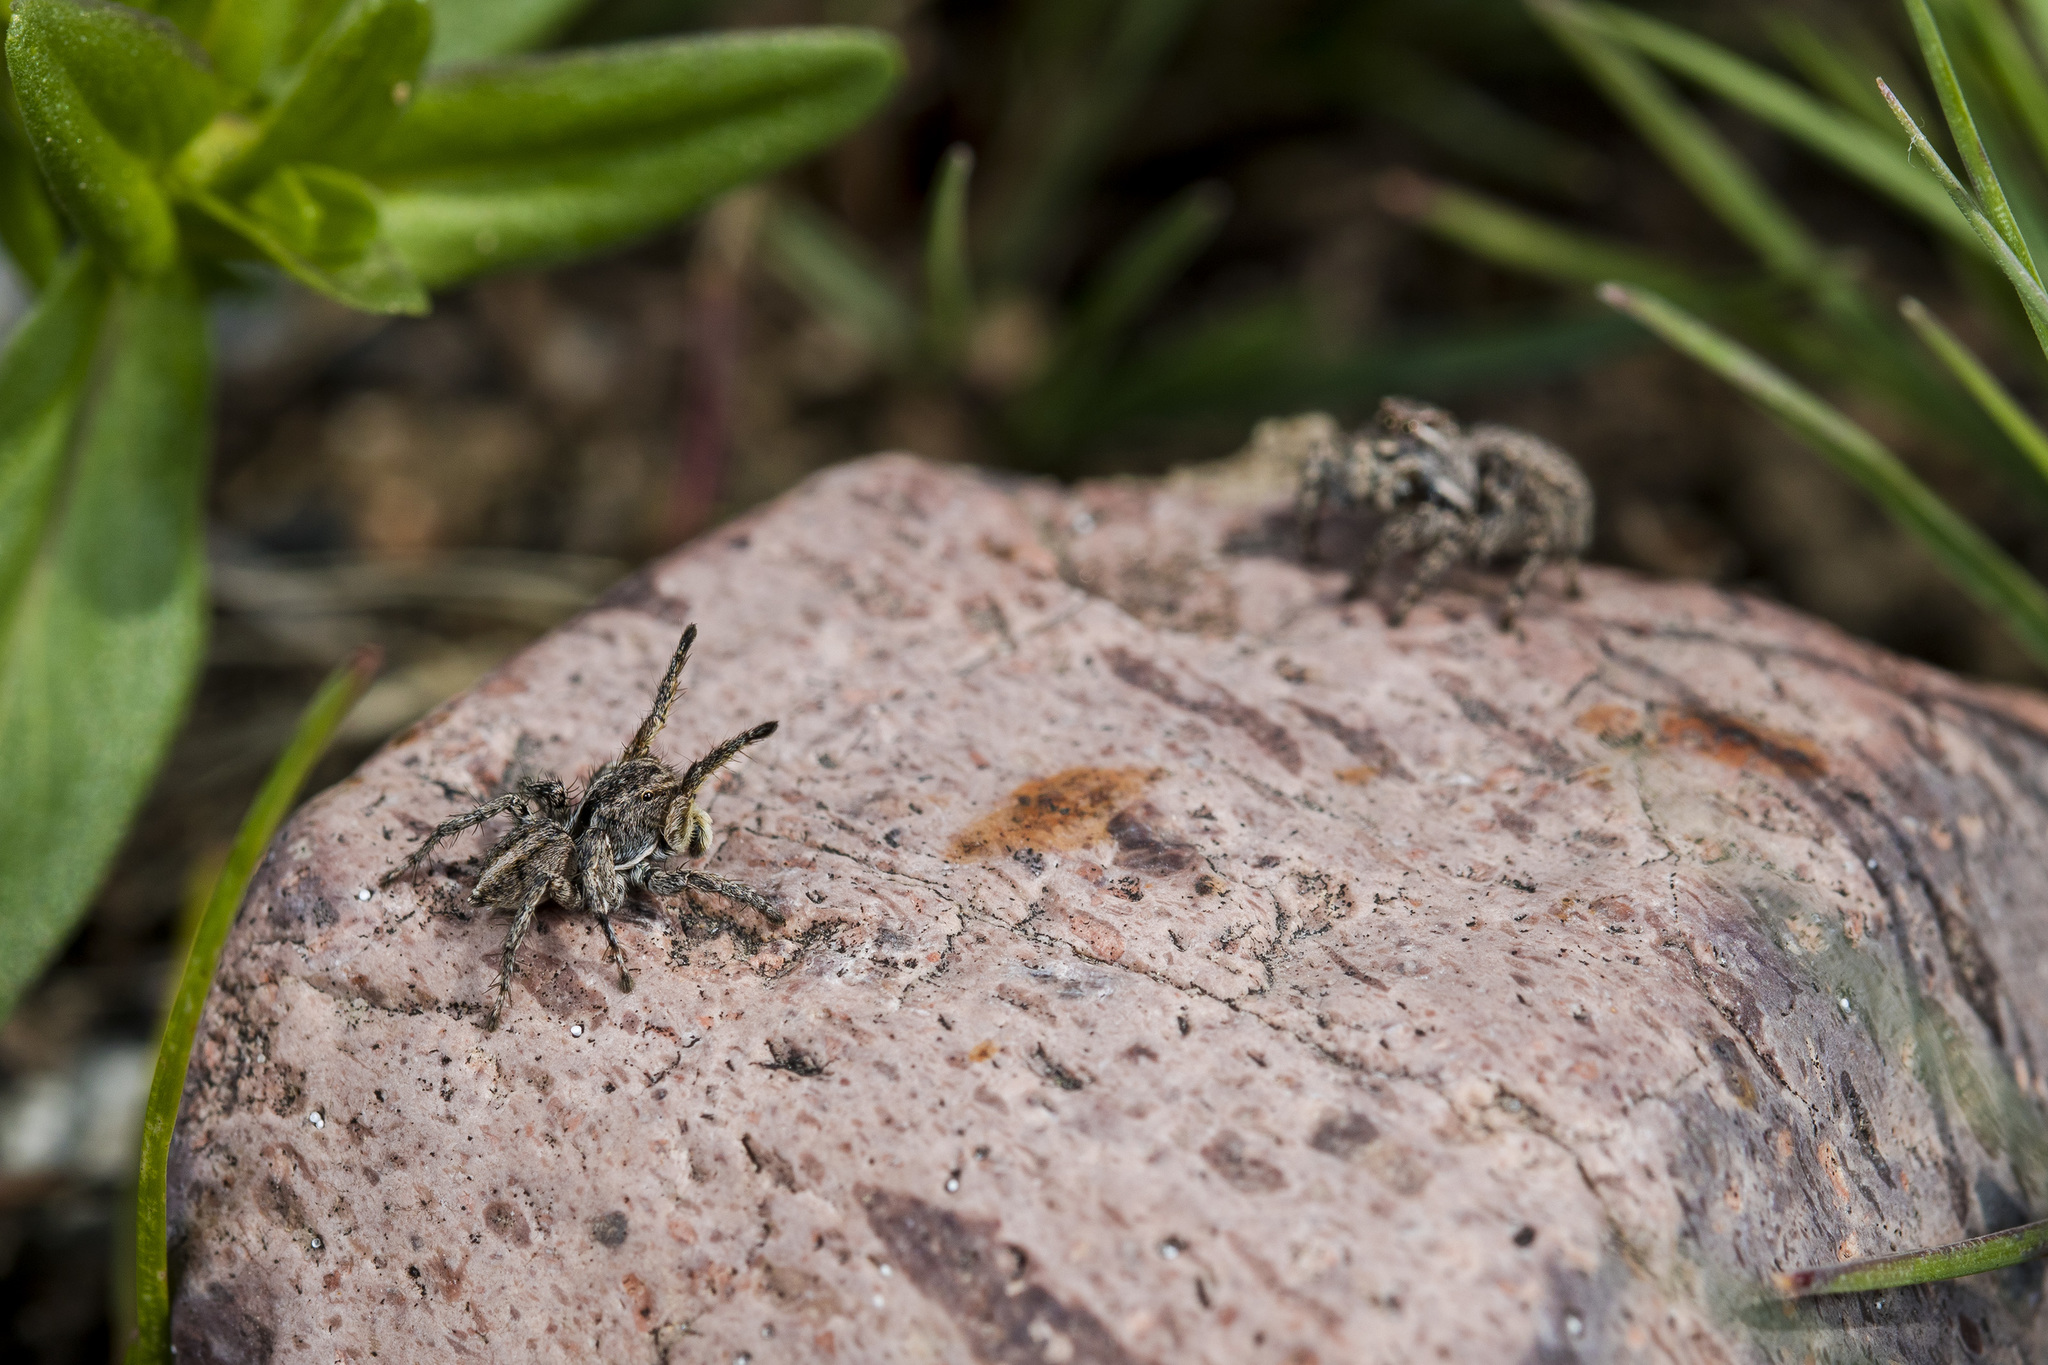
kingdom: Animalia
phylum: Arthropoda
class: Arachnida
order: Araneae
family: Salticidae
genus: Aelurillus
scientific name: Aelurillus v-insignitus
